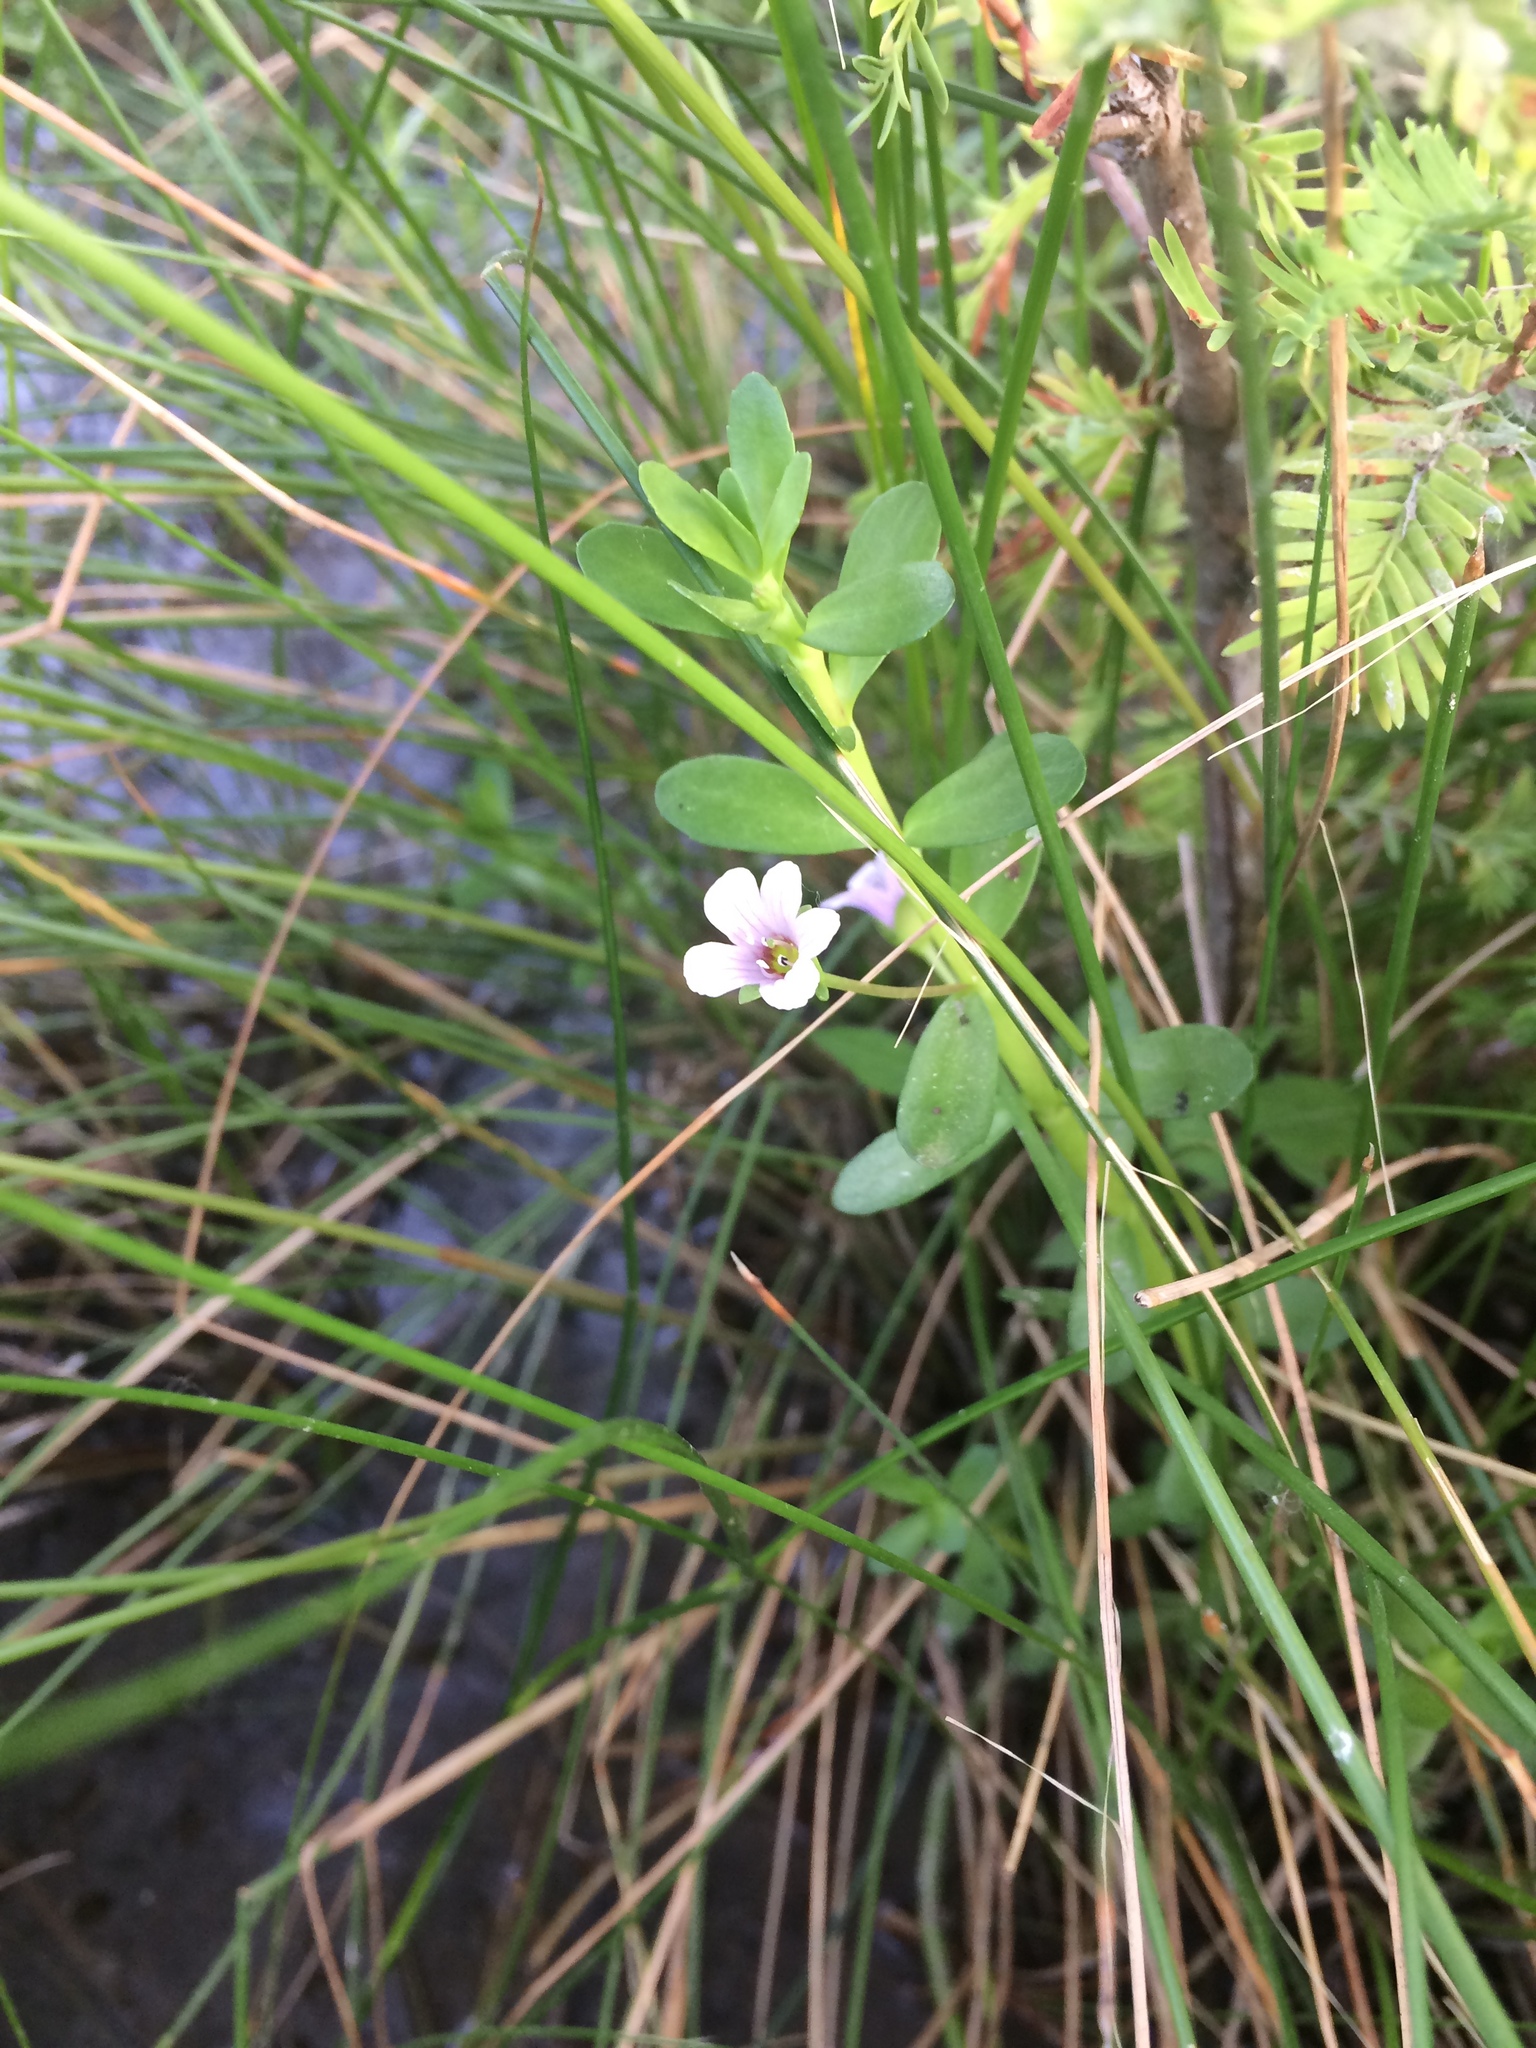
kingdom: Plantae
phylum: Tracheophyta
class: Magnoliopsida
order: Lamiales
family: Plantaginaceae
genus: Bacopa
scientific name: Bacopa monnieri
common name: Indian-pennywort
